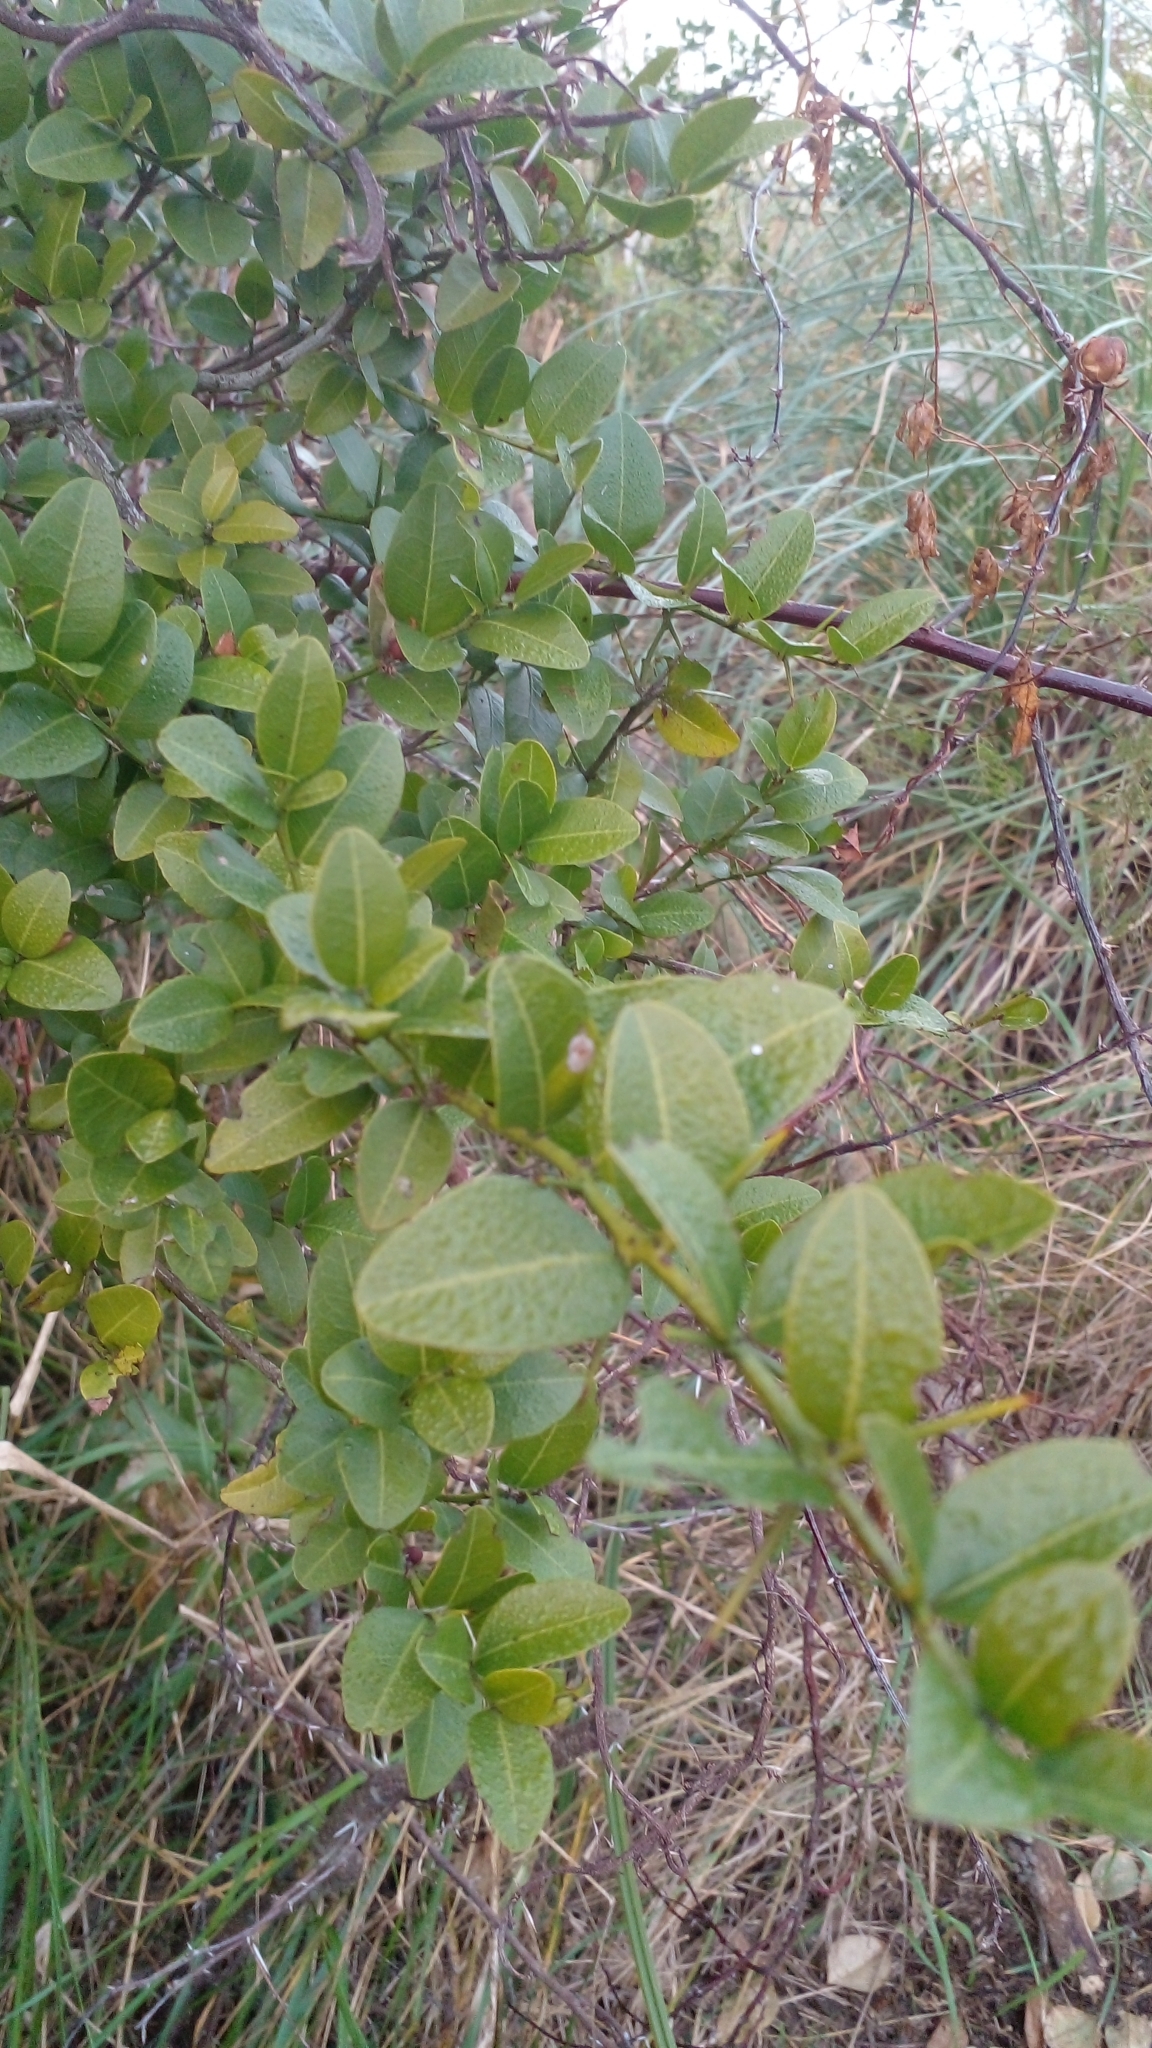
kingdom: Plantae
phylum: Tracheophyta
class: Magnoliopsida
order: Rosales
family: Rhamnaceae
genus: Scutia
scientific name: Scutia buxifolia
